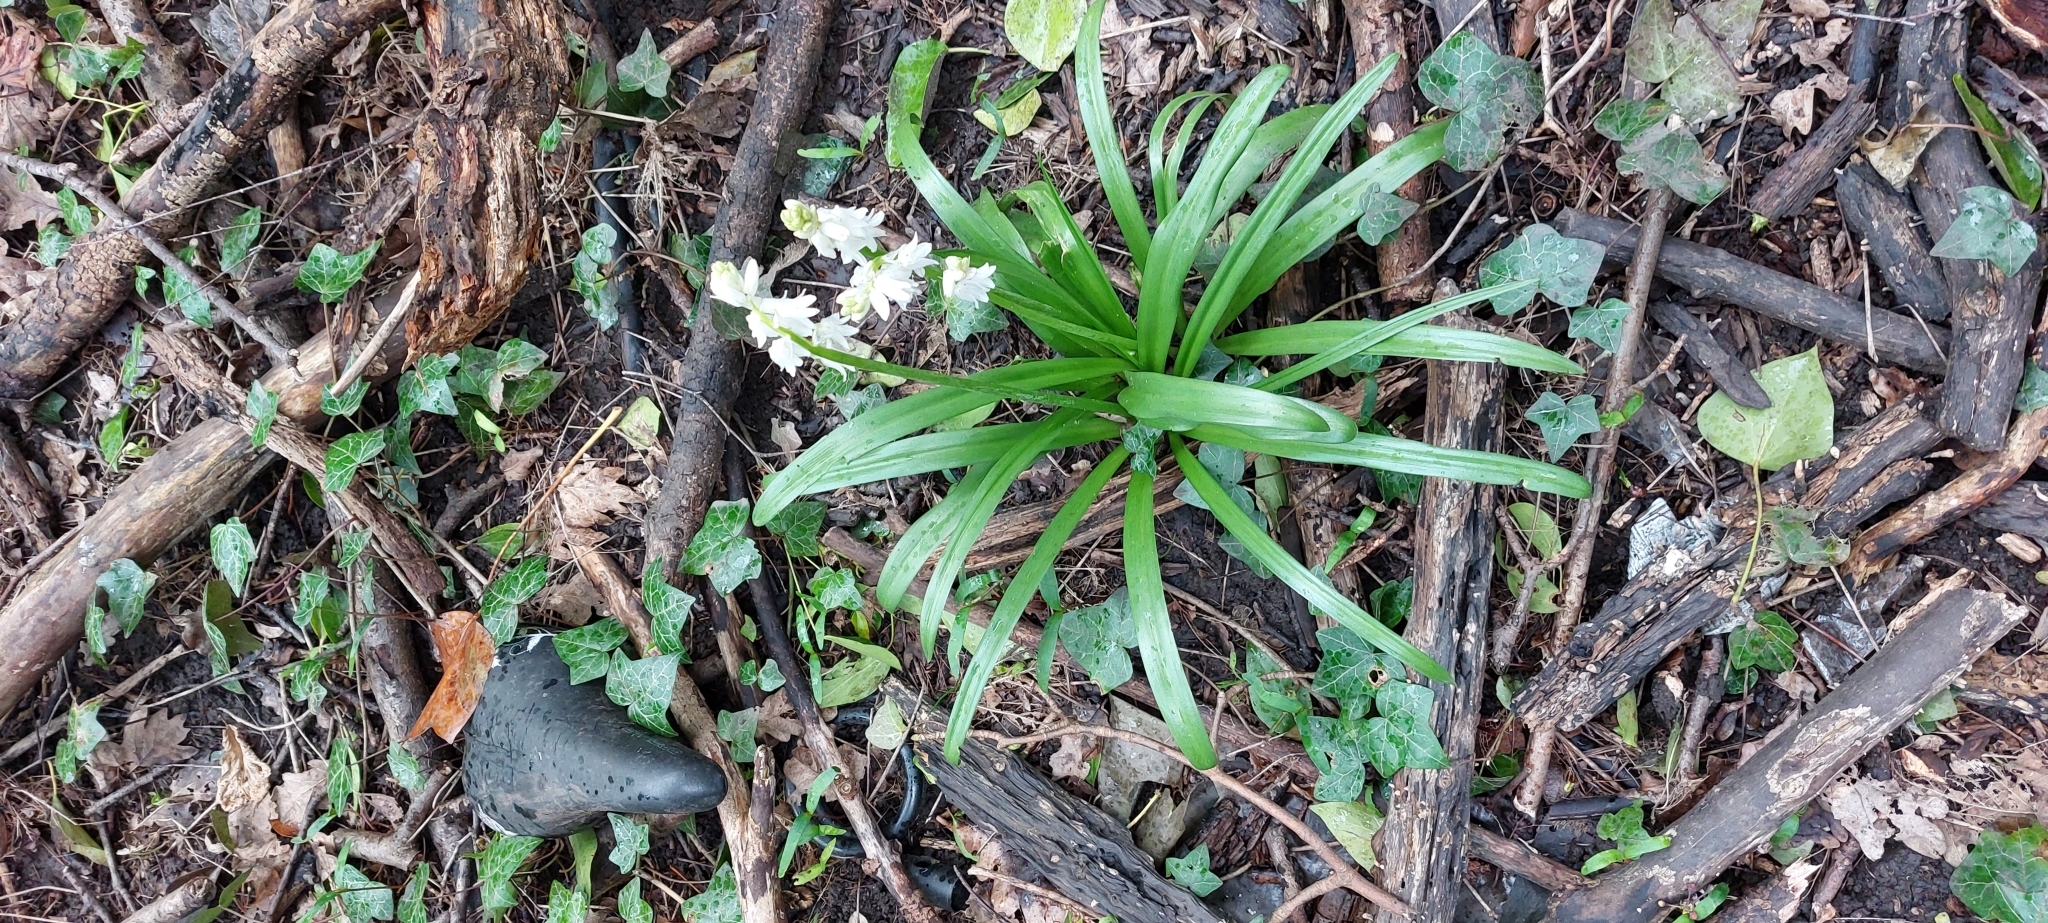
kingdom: Plantae
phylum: Tracheophyta
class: Liliopsida
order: Asparagales
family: Asparagaceae
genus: Hyacinthoides
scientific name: Hyacinthoides massartiana
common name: Hyacinthoides
